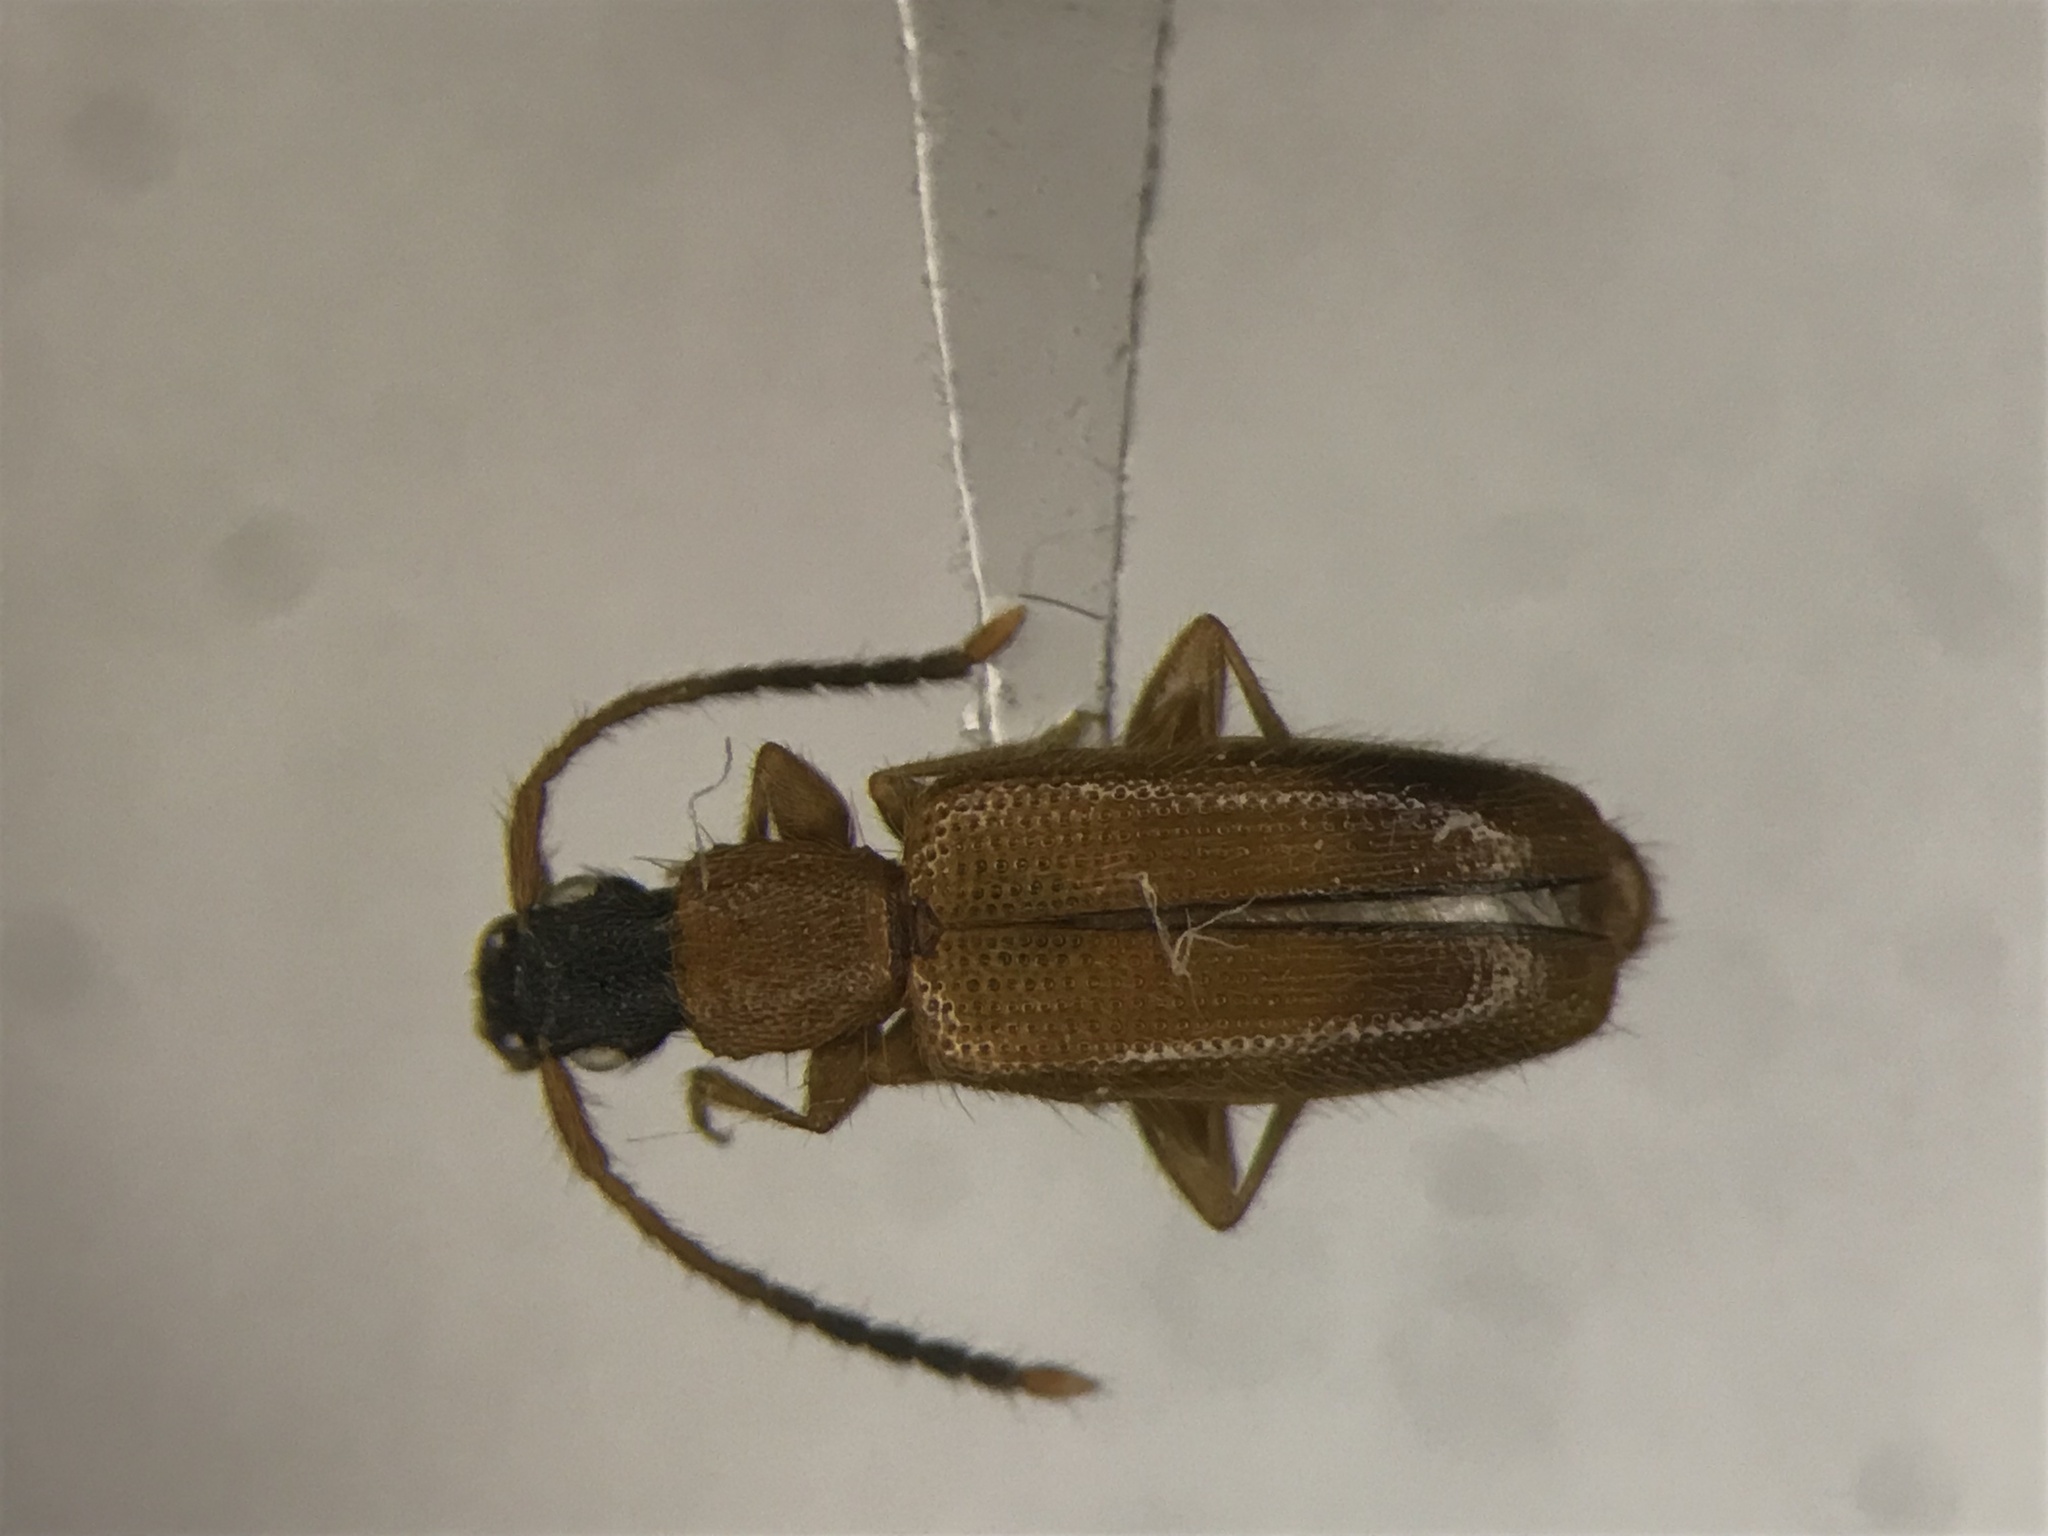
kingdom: Animalia
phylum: Arthropoda
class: Insecta
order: Coleoptera
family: Silvanidae
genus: Telephanus
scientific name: Telephanus velox
